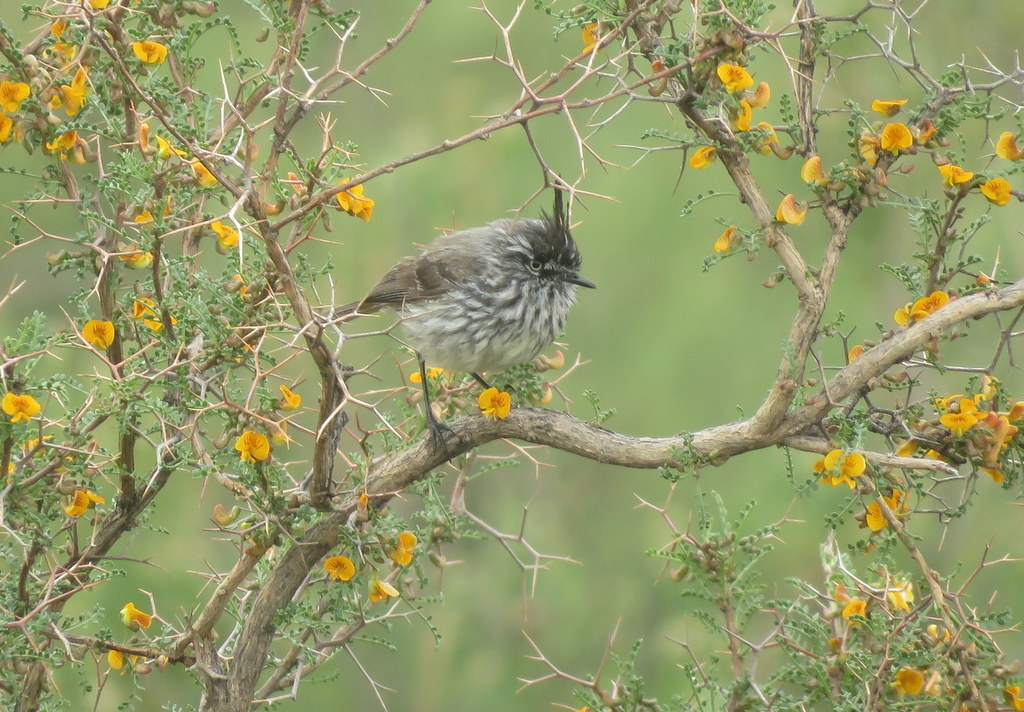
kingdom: Animalia
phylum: Chordata
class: Aves
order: Passeriformes
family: Tyrannidae
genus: Anairetes
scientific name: Anairetes parulus
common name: Tufted tit-tyrant
